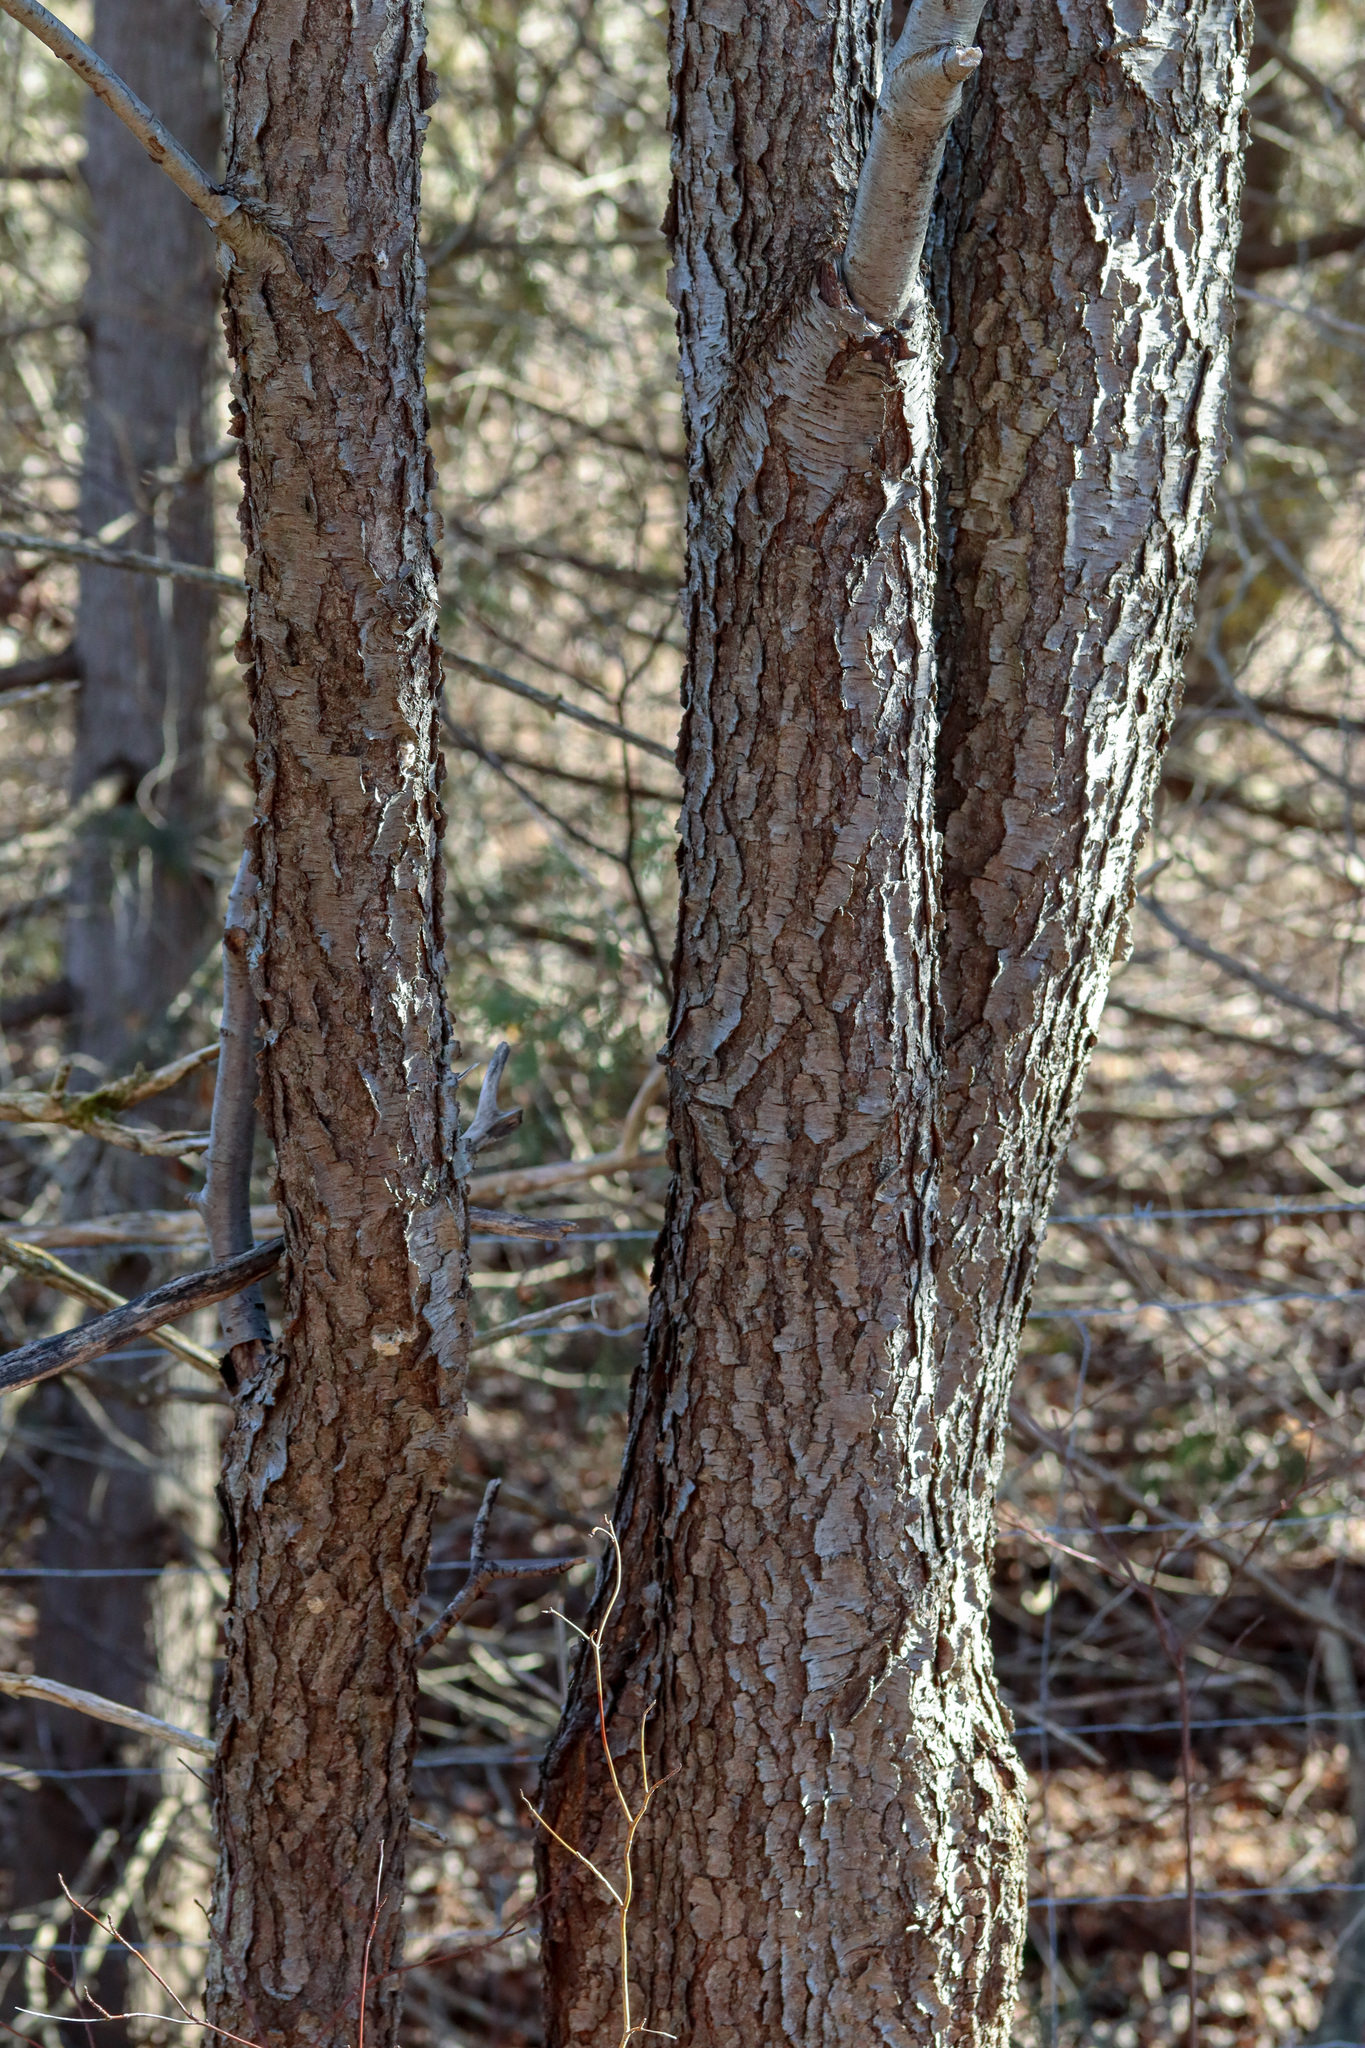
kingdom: Plantae
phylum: Tracheophyta
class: Magnoliopsida
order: Rosales
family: Rosaceae
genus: Prunus
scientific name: Prunus serotina
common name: Black cherry
